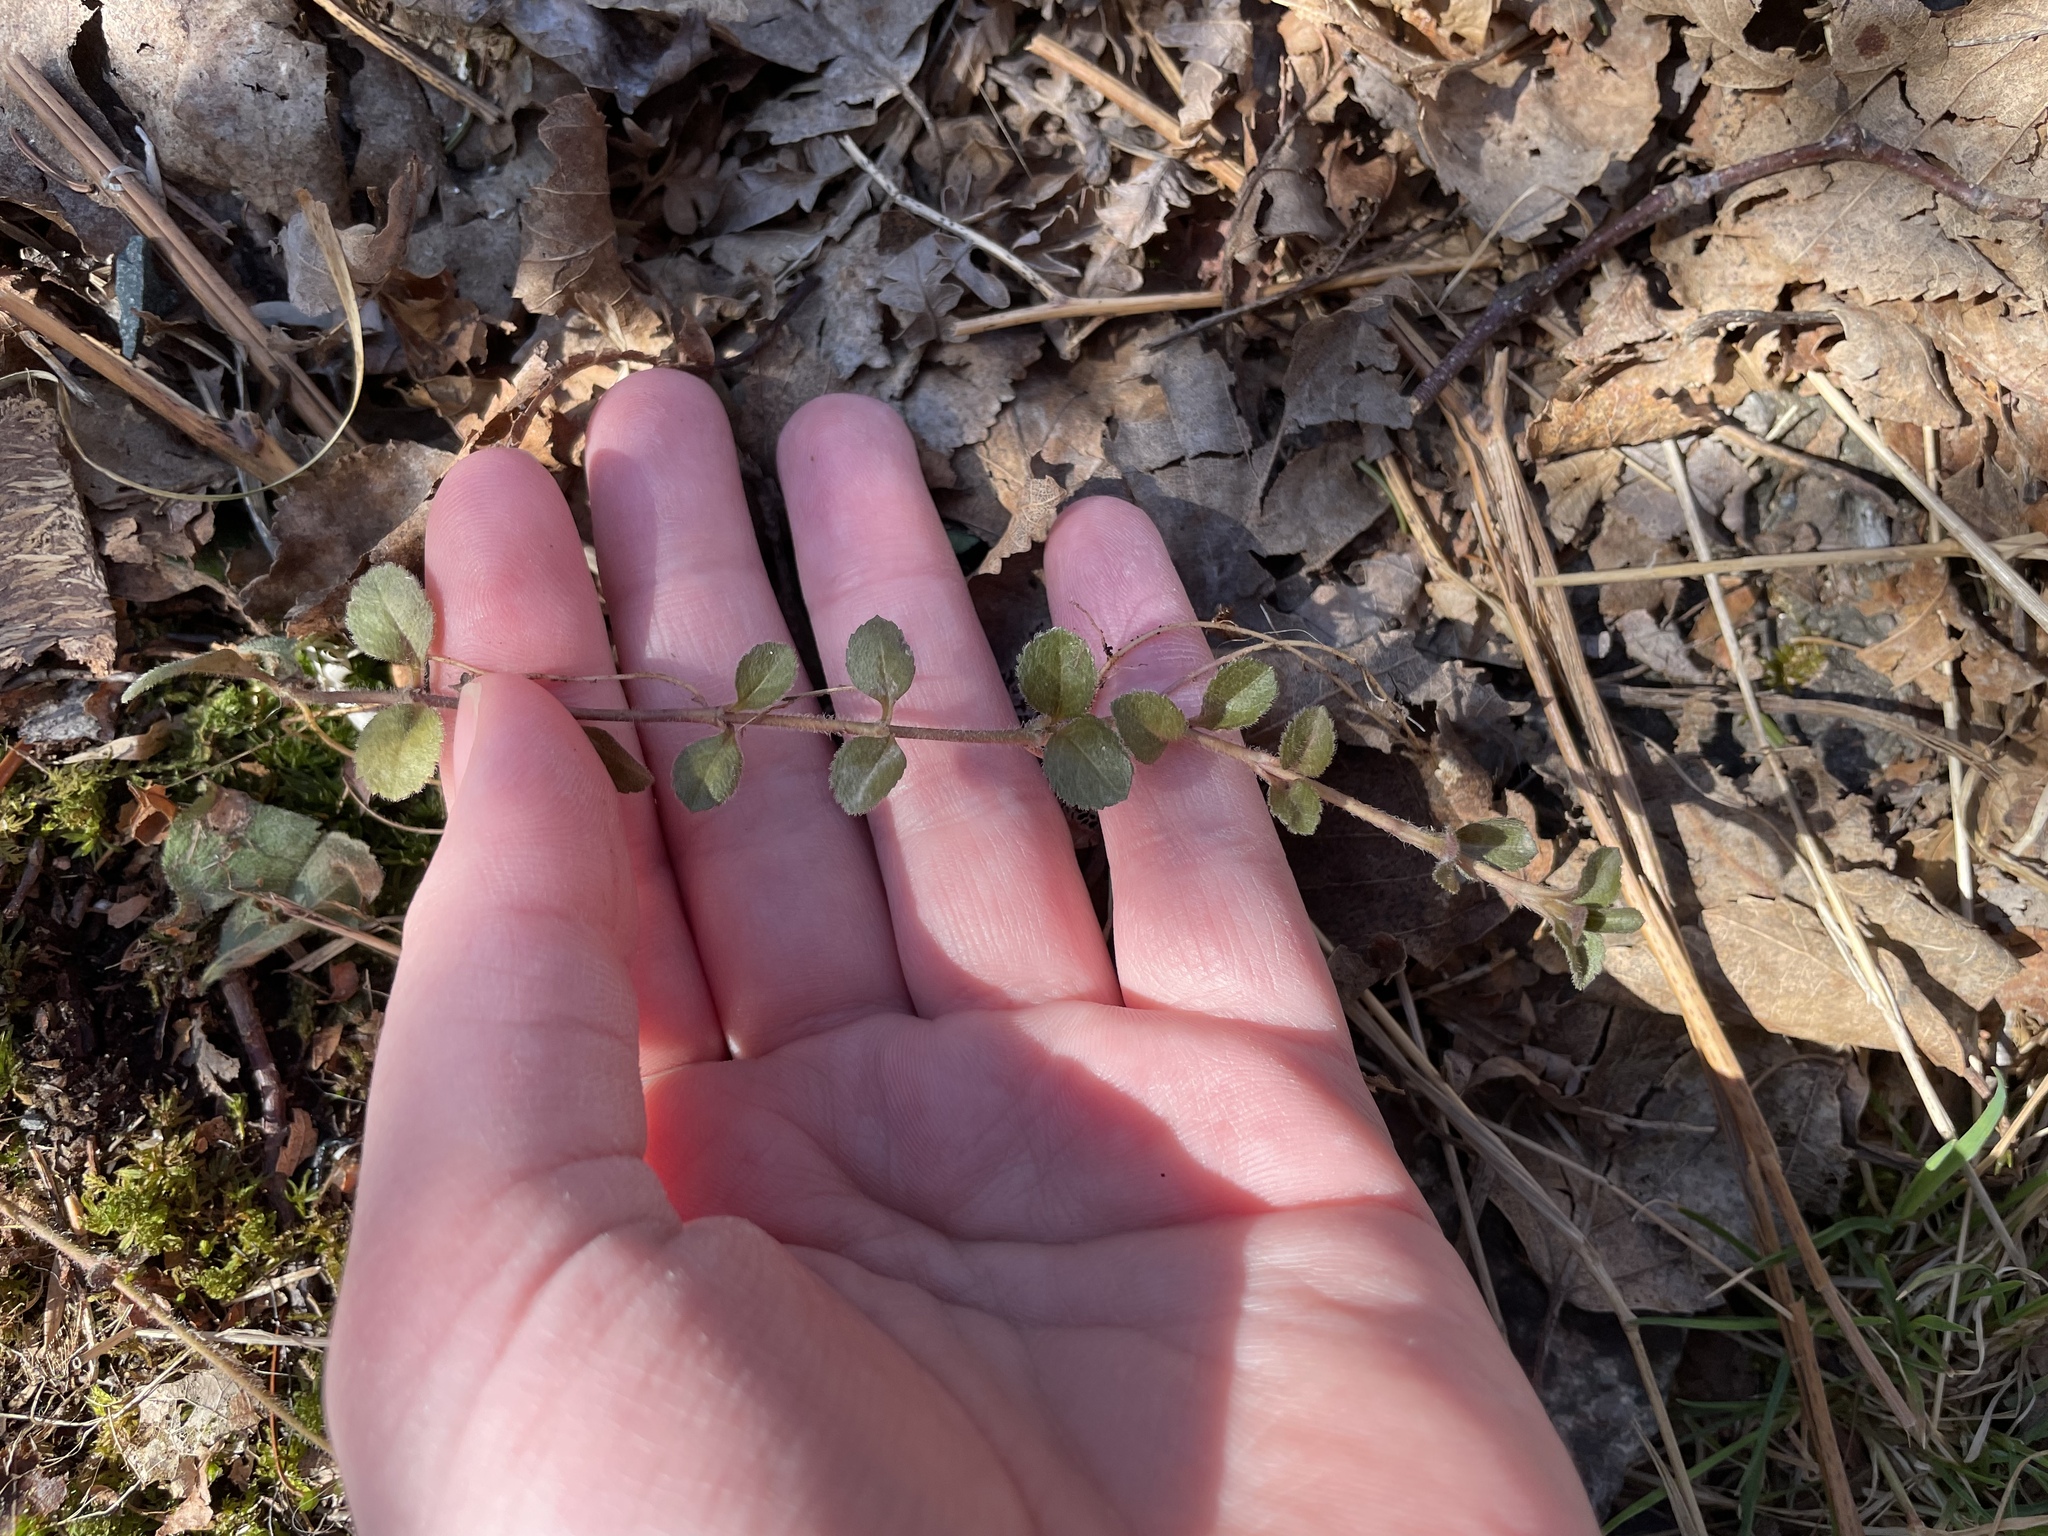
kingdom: Plantae
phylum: Tracheophyta
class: Magnoliopsida
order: Lamiales
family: Plantaginaceae
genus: Veronica
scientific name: Veronica officinalis
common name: Common speedwell
